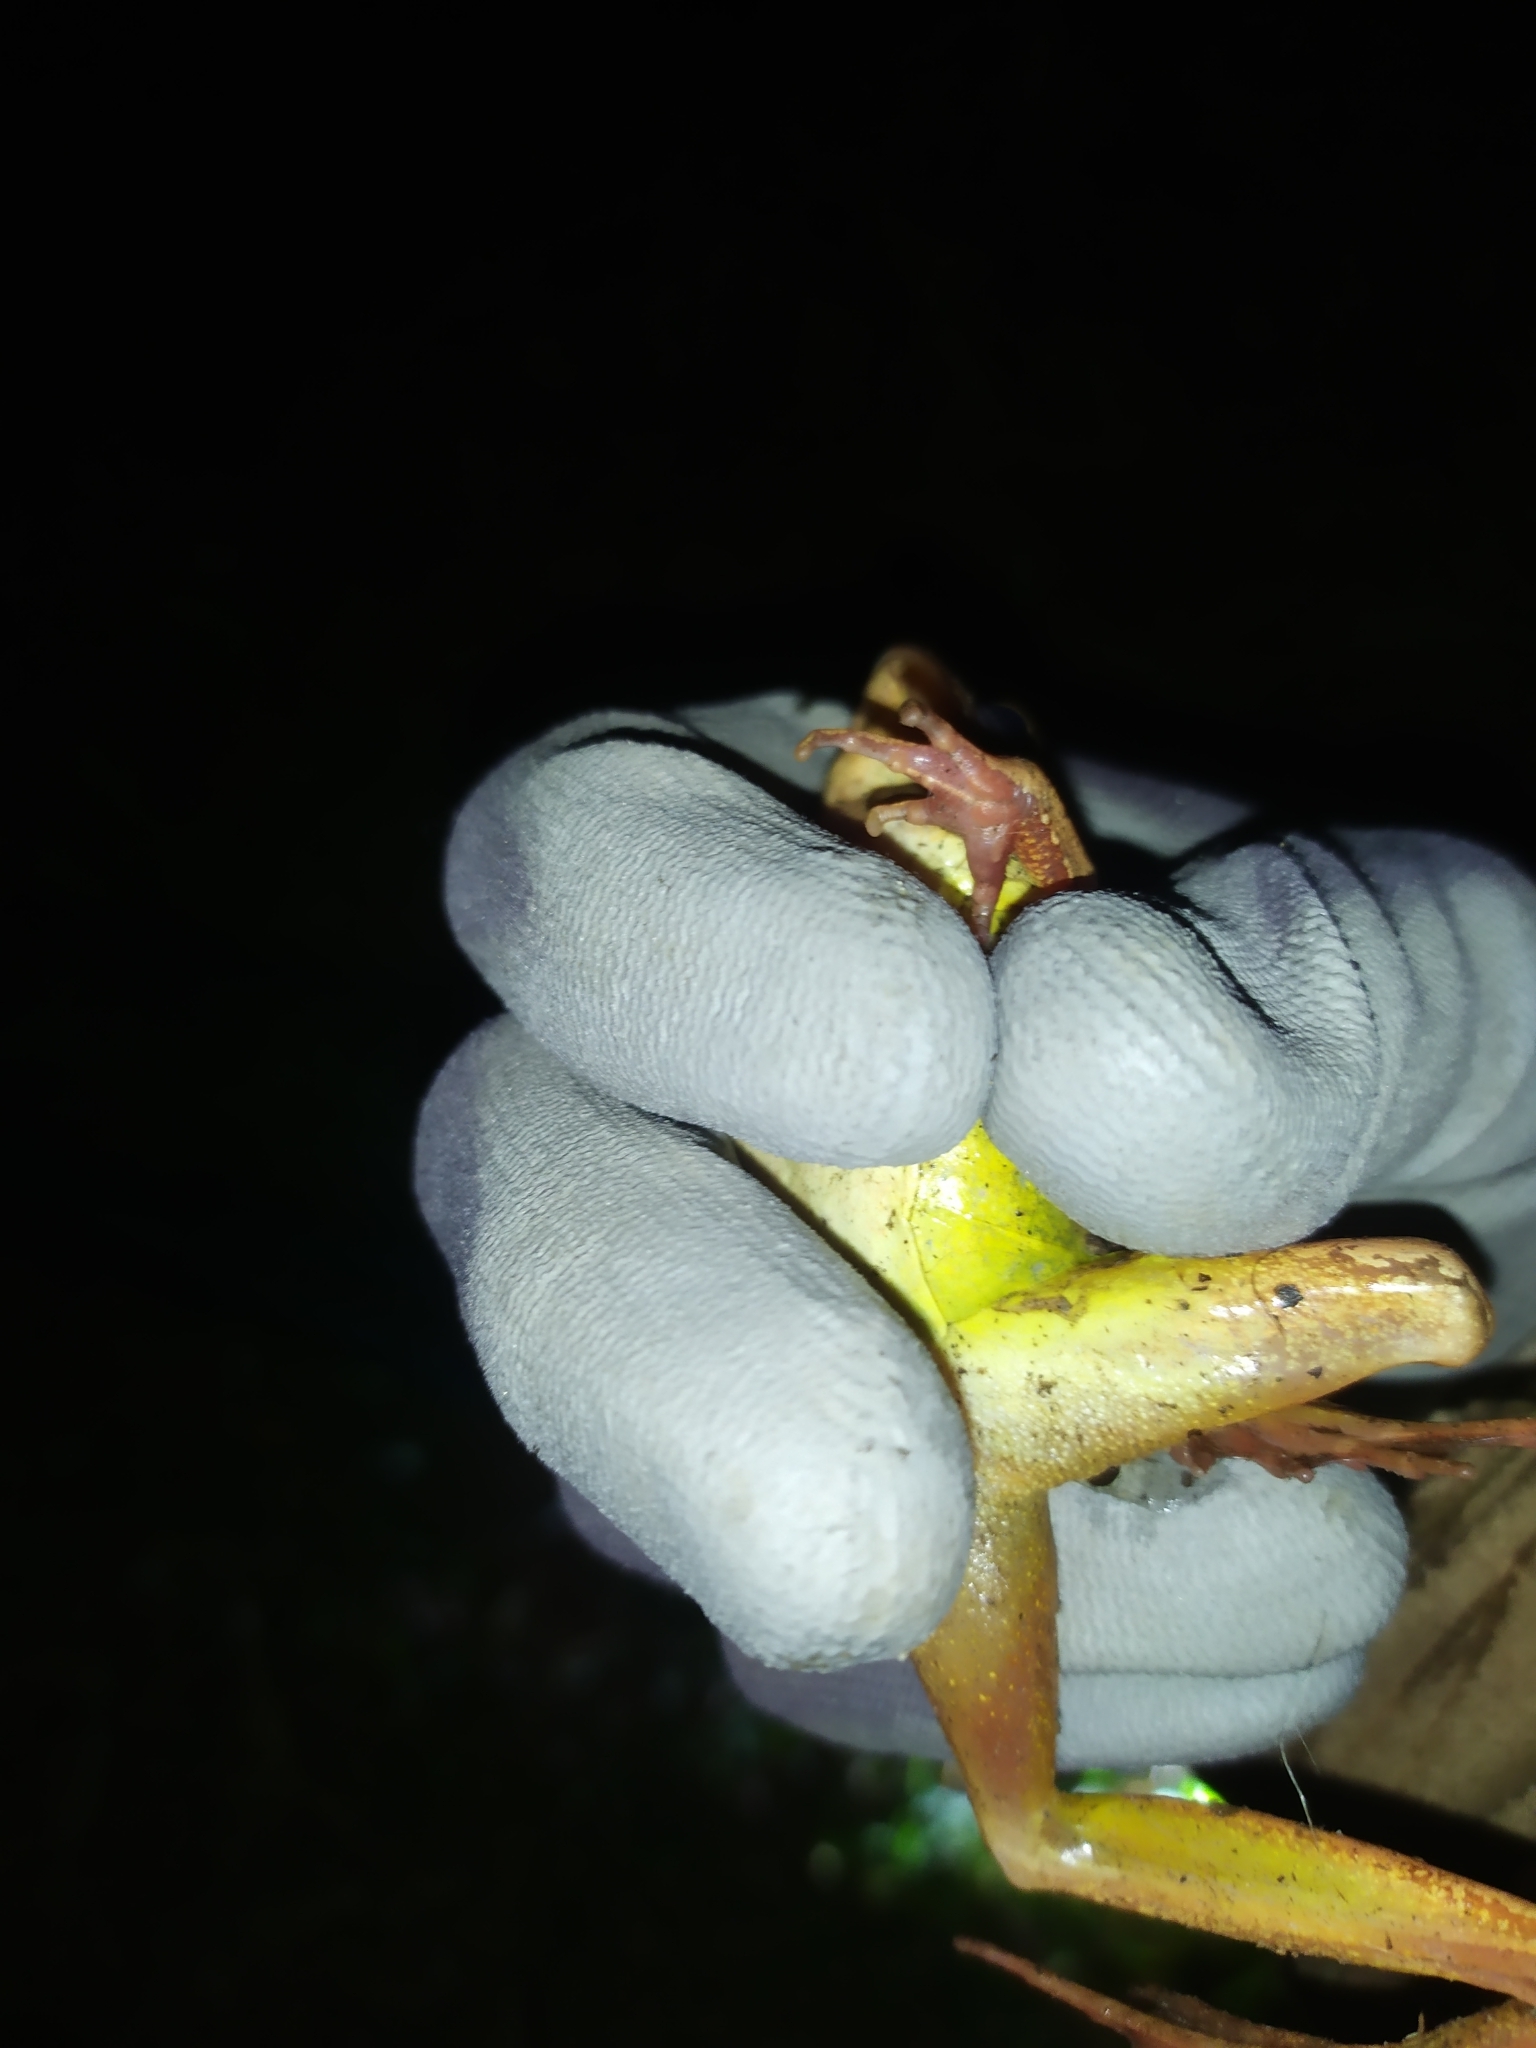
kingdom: Animalia
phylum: Chordata
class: Amphibia
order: Anura
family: Ranidae
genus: Rana
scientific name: Rana dalmatina
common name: Agile frog
